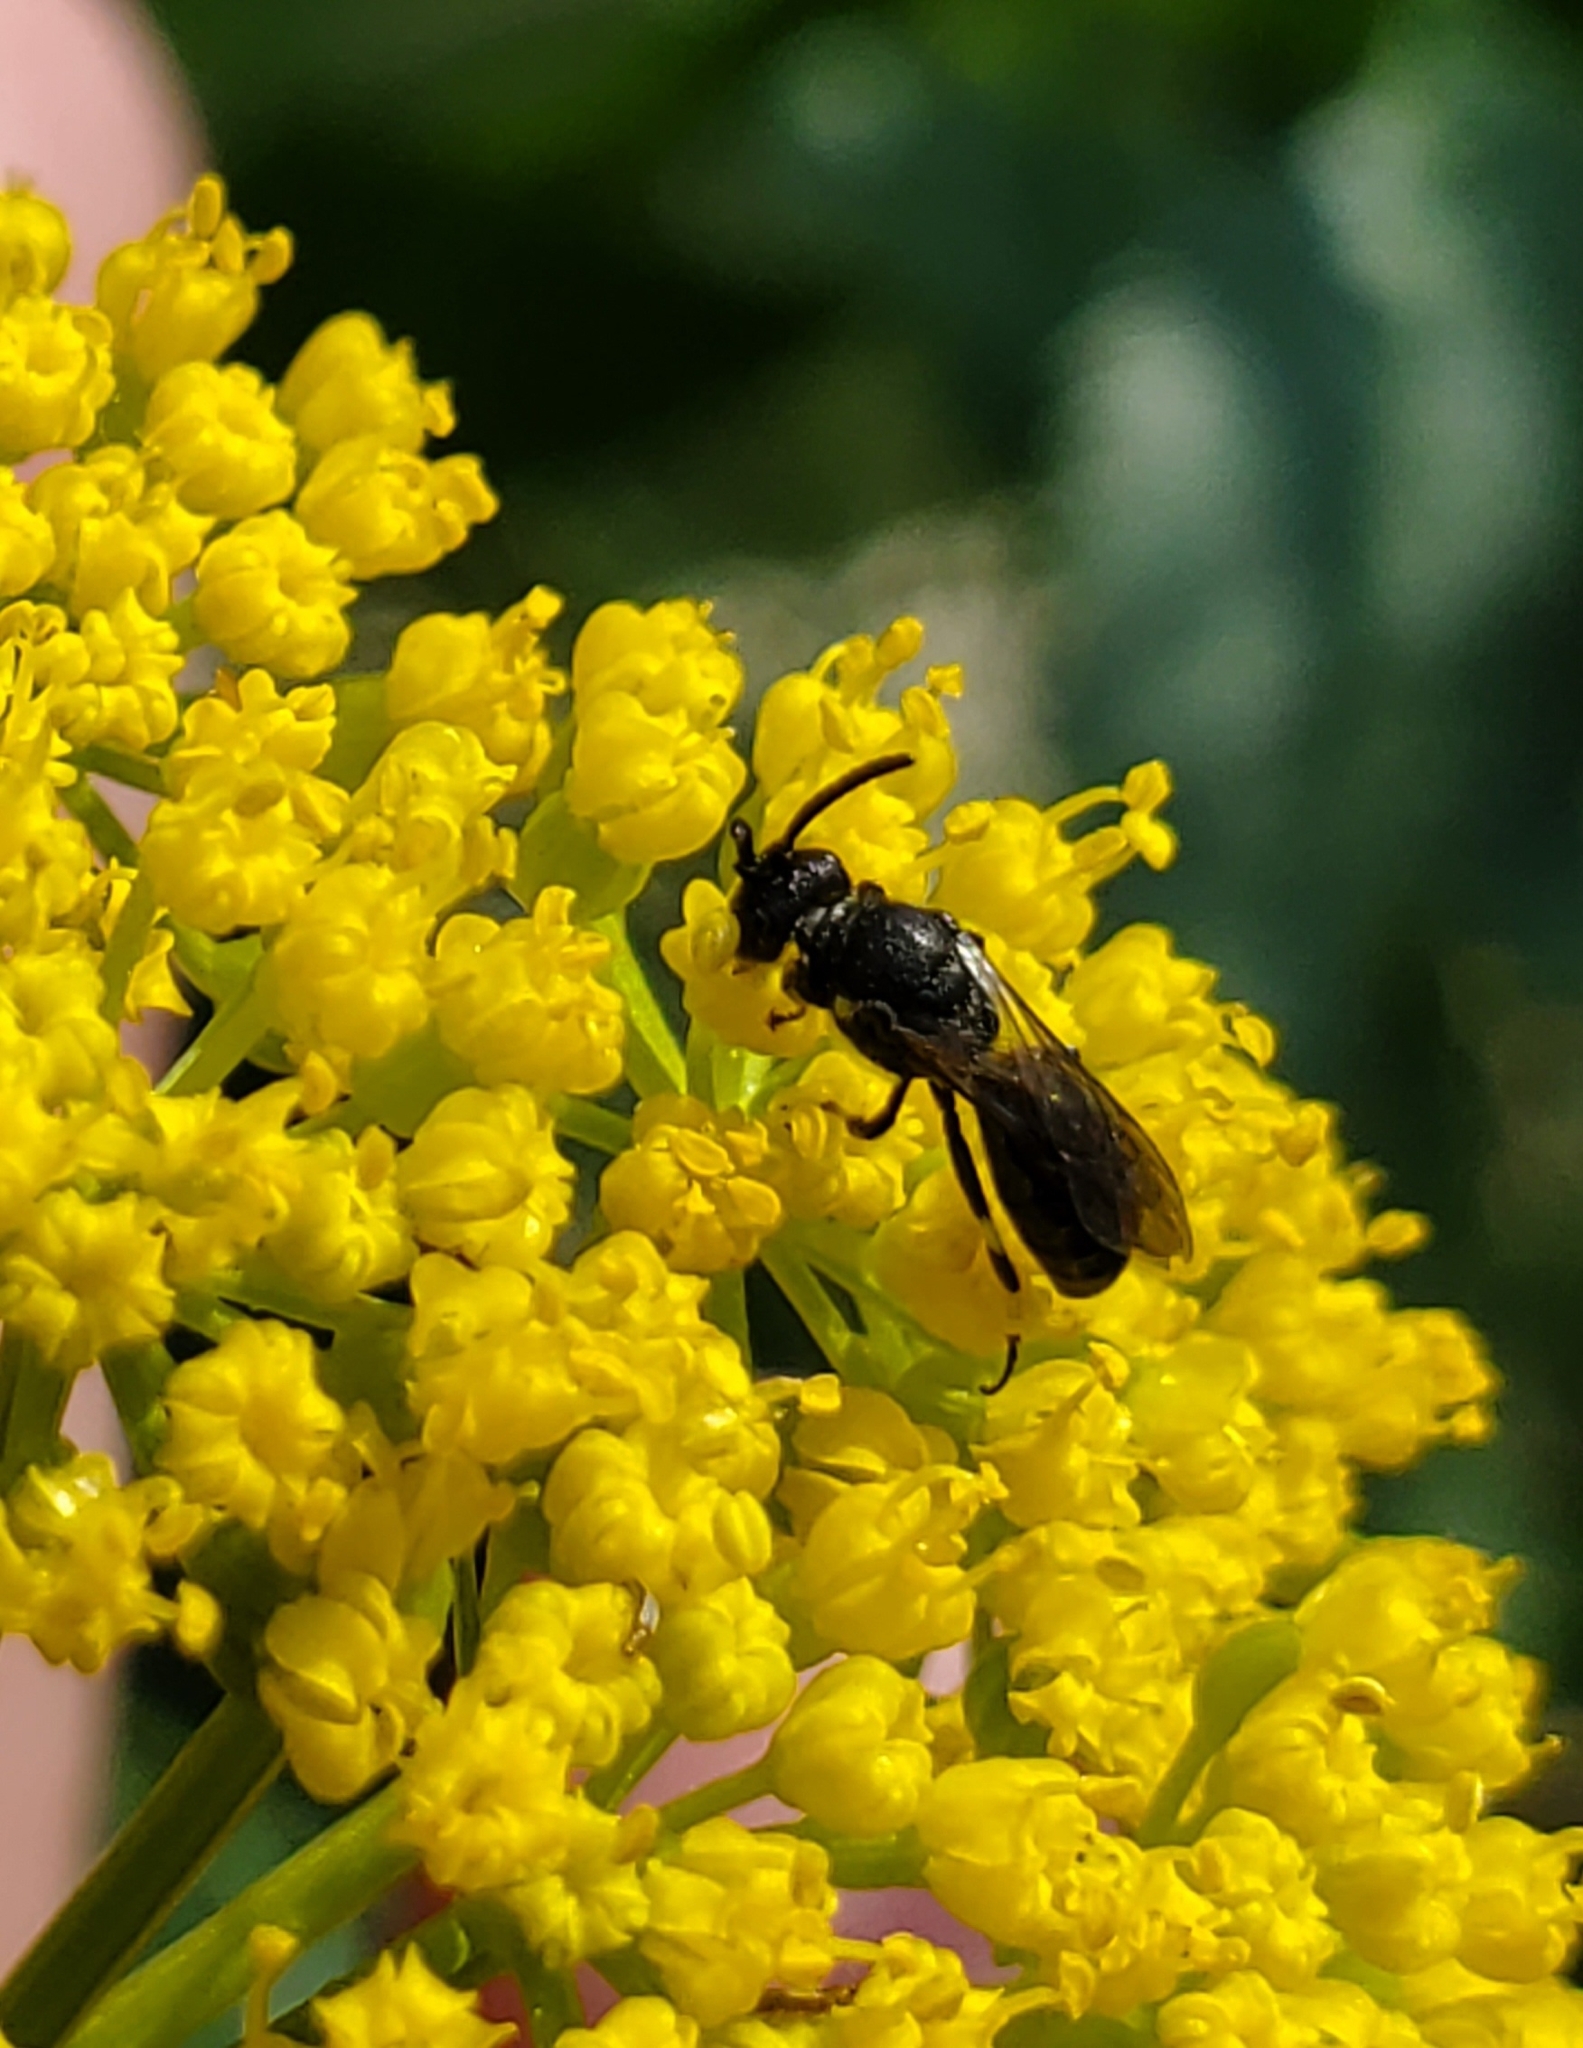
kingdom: Animalia
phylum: Arthropoda
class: Insecta
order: Hymenoptera
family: Colletidae
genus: Hylaeus
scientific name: Hylaeus annulatus
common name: Annulate masked bee
